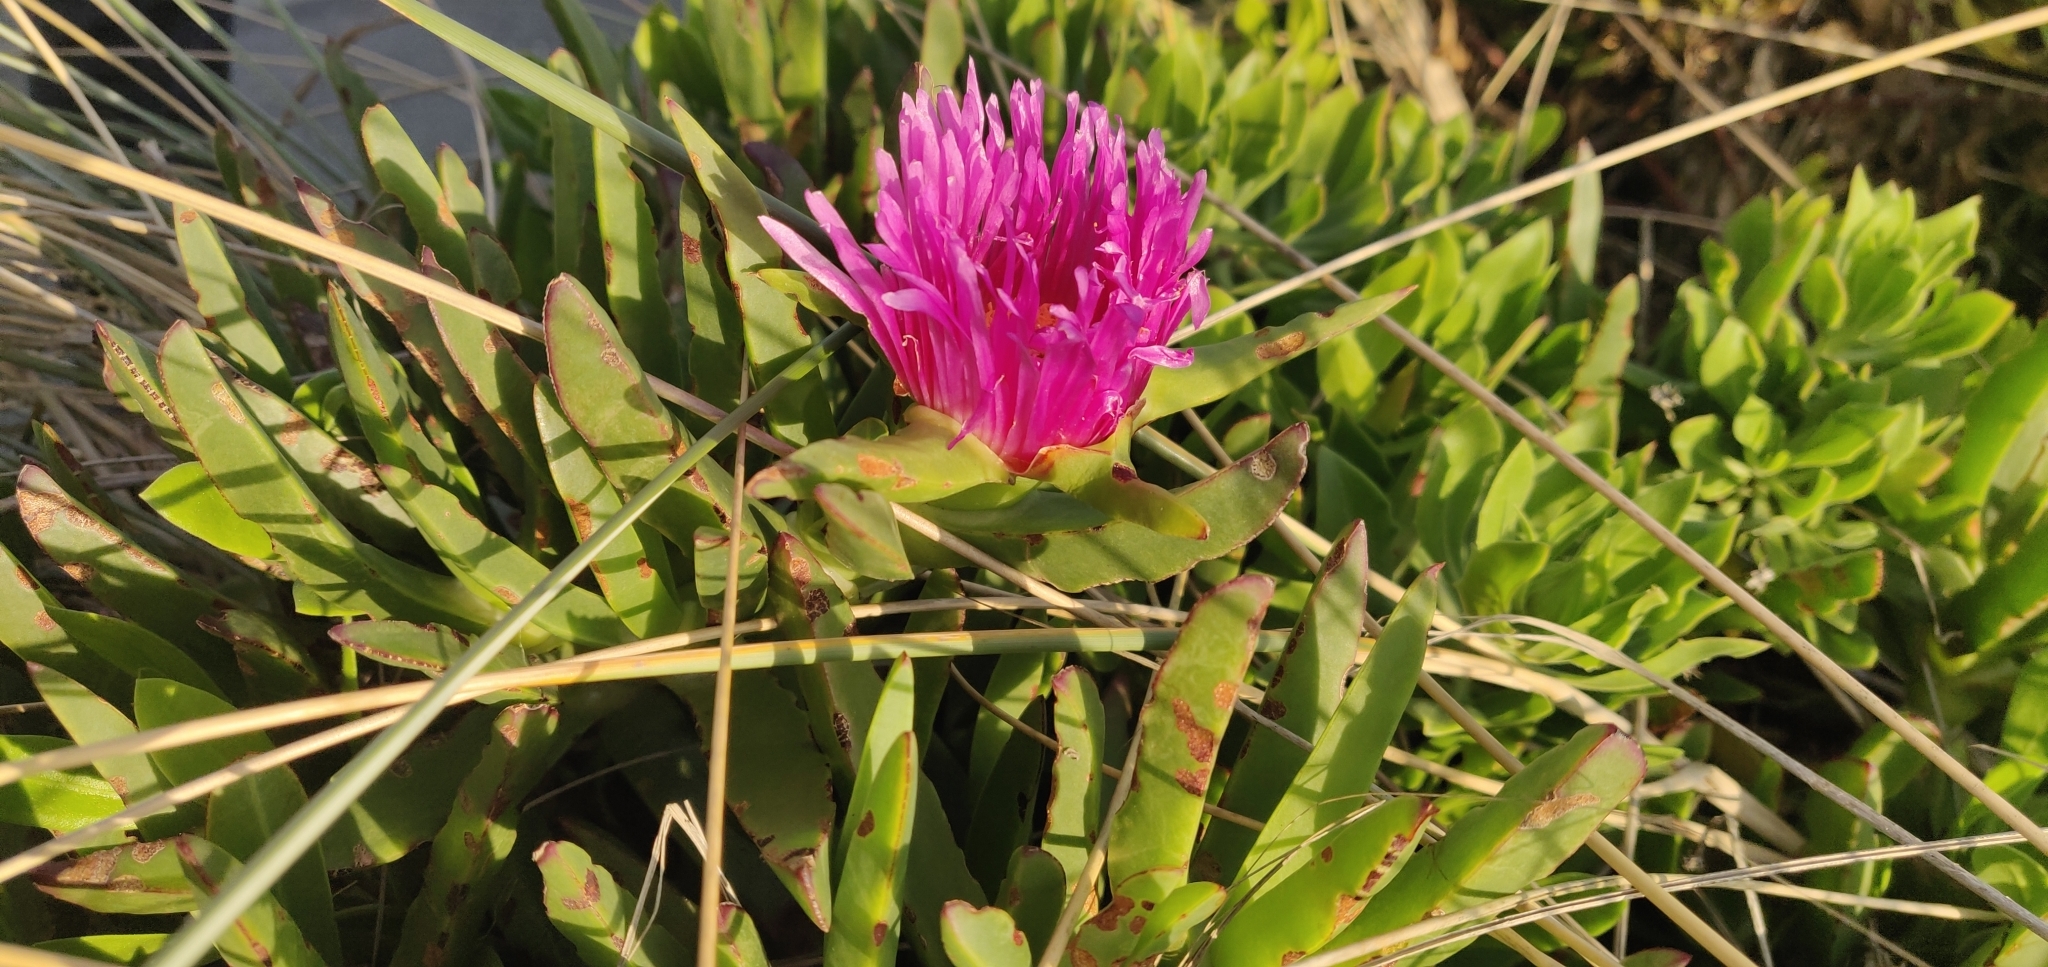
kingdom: Plantae
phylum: Tracheophyta
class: Magnoliopsida
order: Caryophyllales
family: Aizoaceae
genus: Carpobrotus
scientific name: Carpobrotus chilensis
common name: Sea fig
